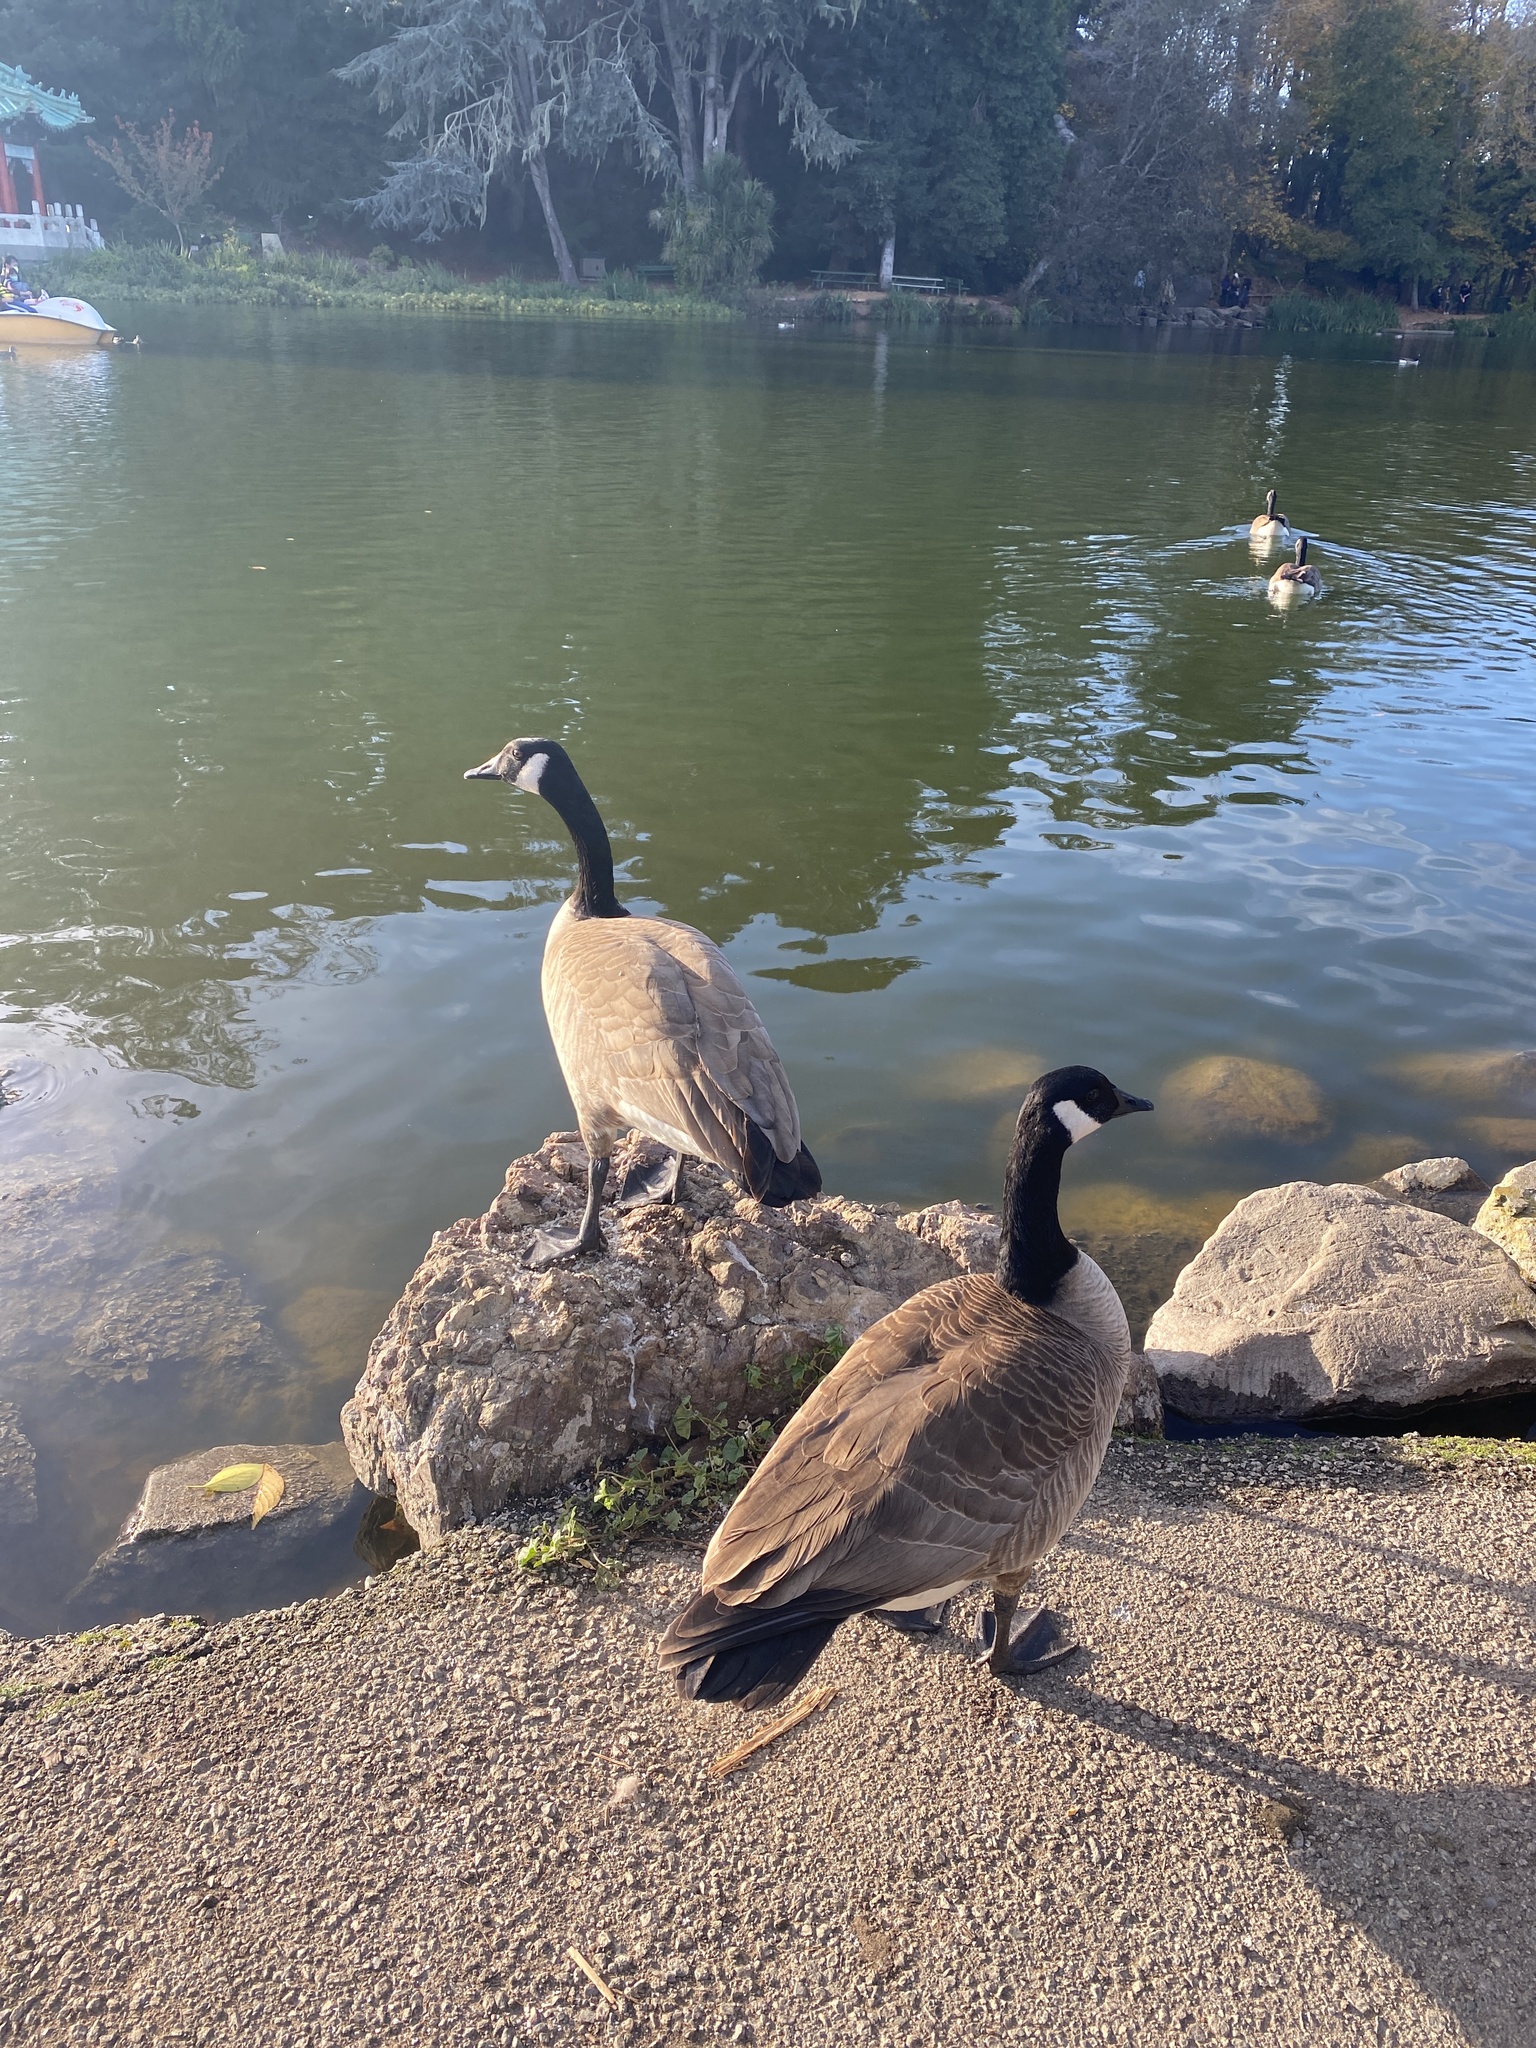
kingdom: Animalia
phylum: Chordata
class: Aves
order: Anseriformes
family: Anatidae
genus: Branta
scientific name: Branta canadensis
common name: Canada goose
